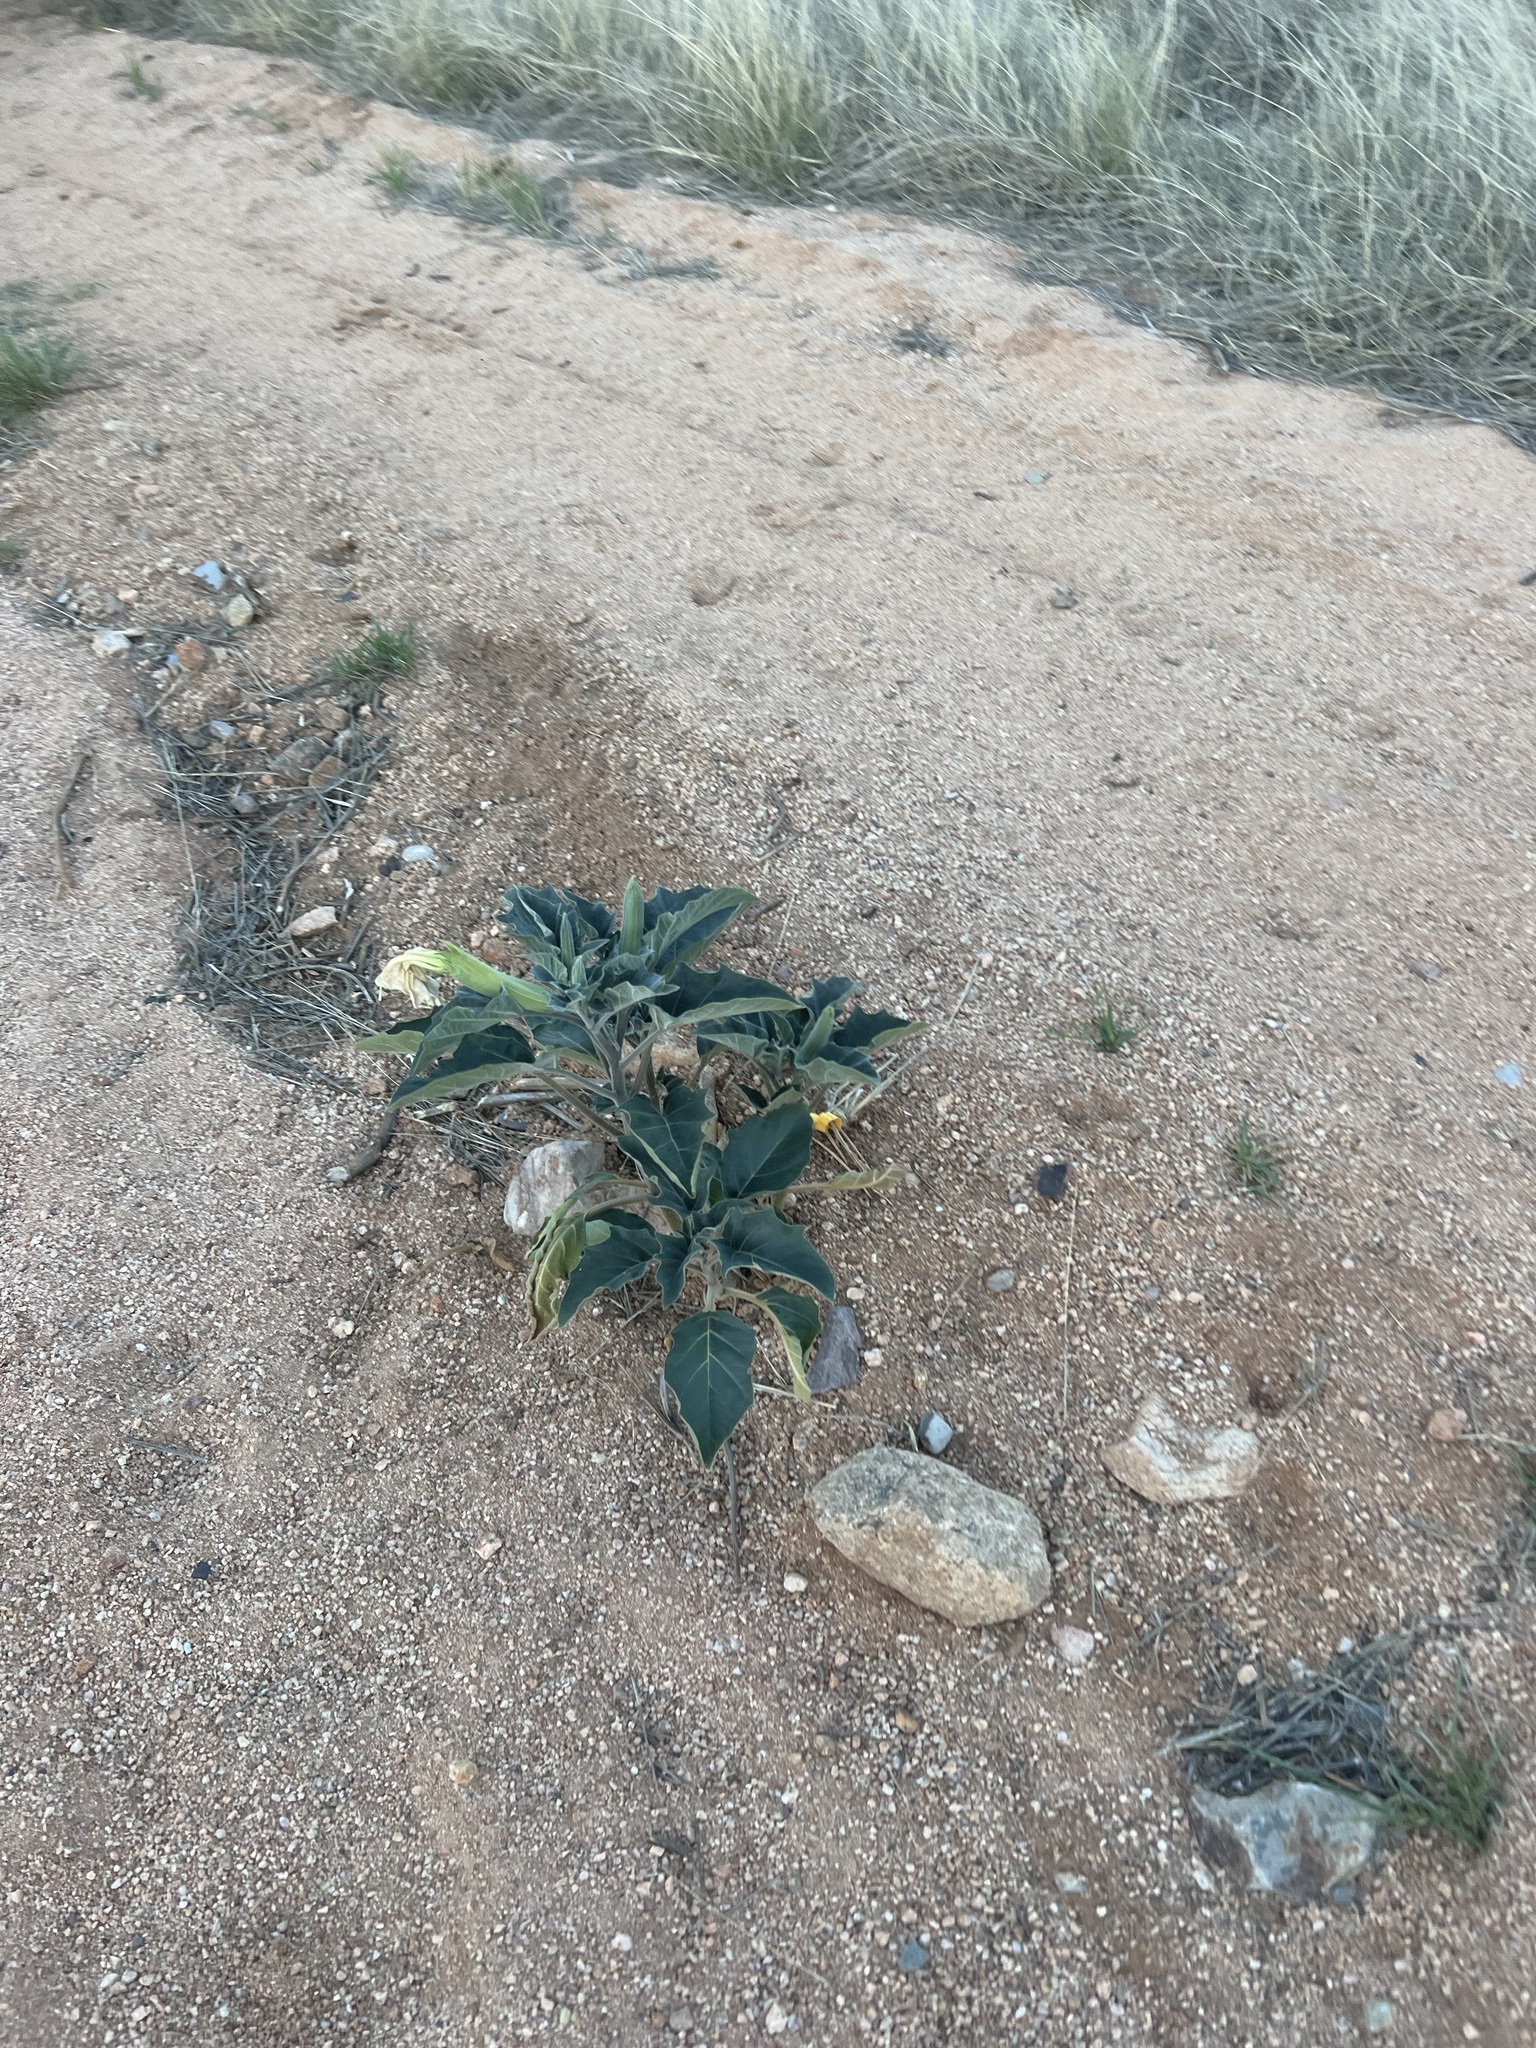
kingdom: Plantae
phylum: Tracheophyta
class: Magnoliopsida
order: Solanales
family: Solanaceae
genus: Datura
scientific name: Datura wrightii
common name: Sacred thorn-apple
